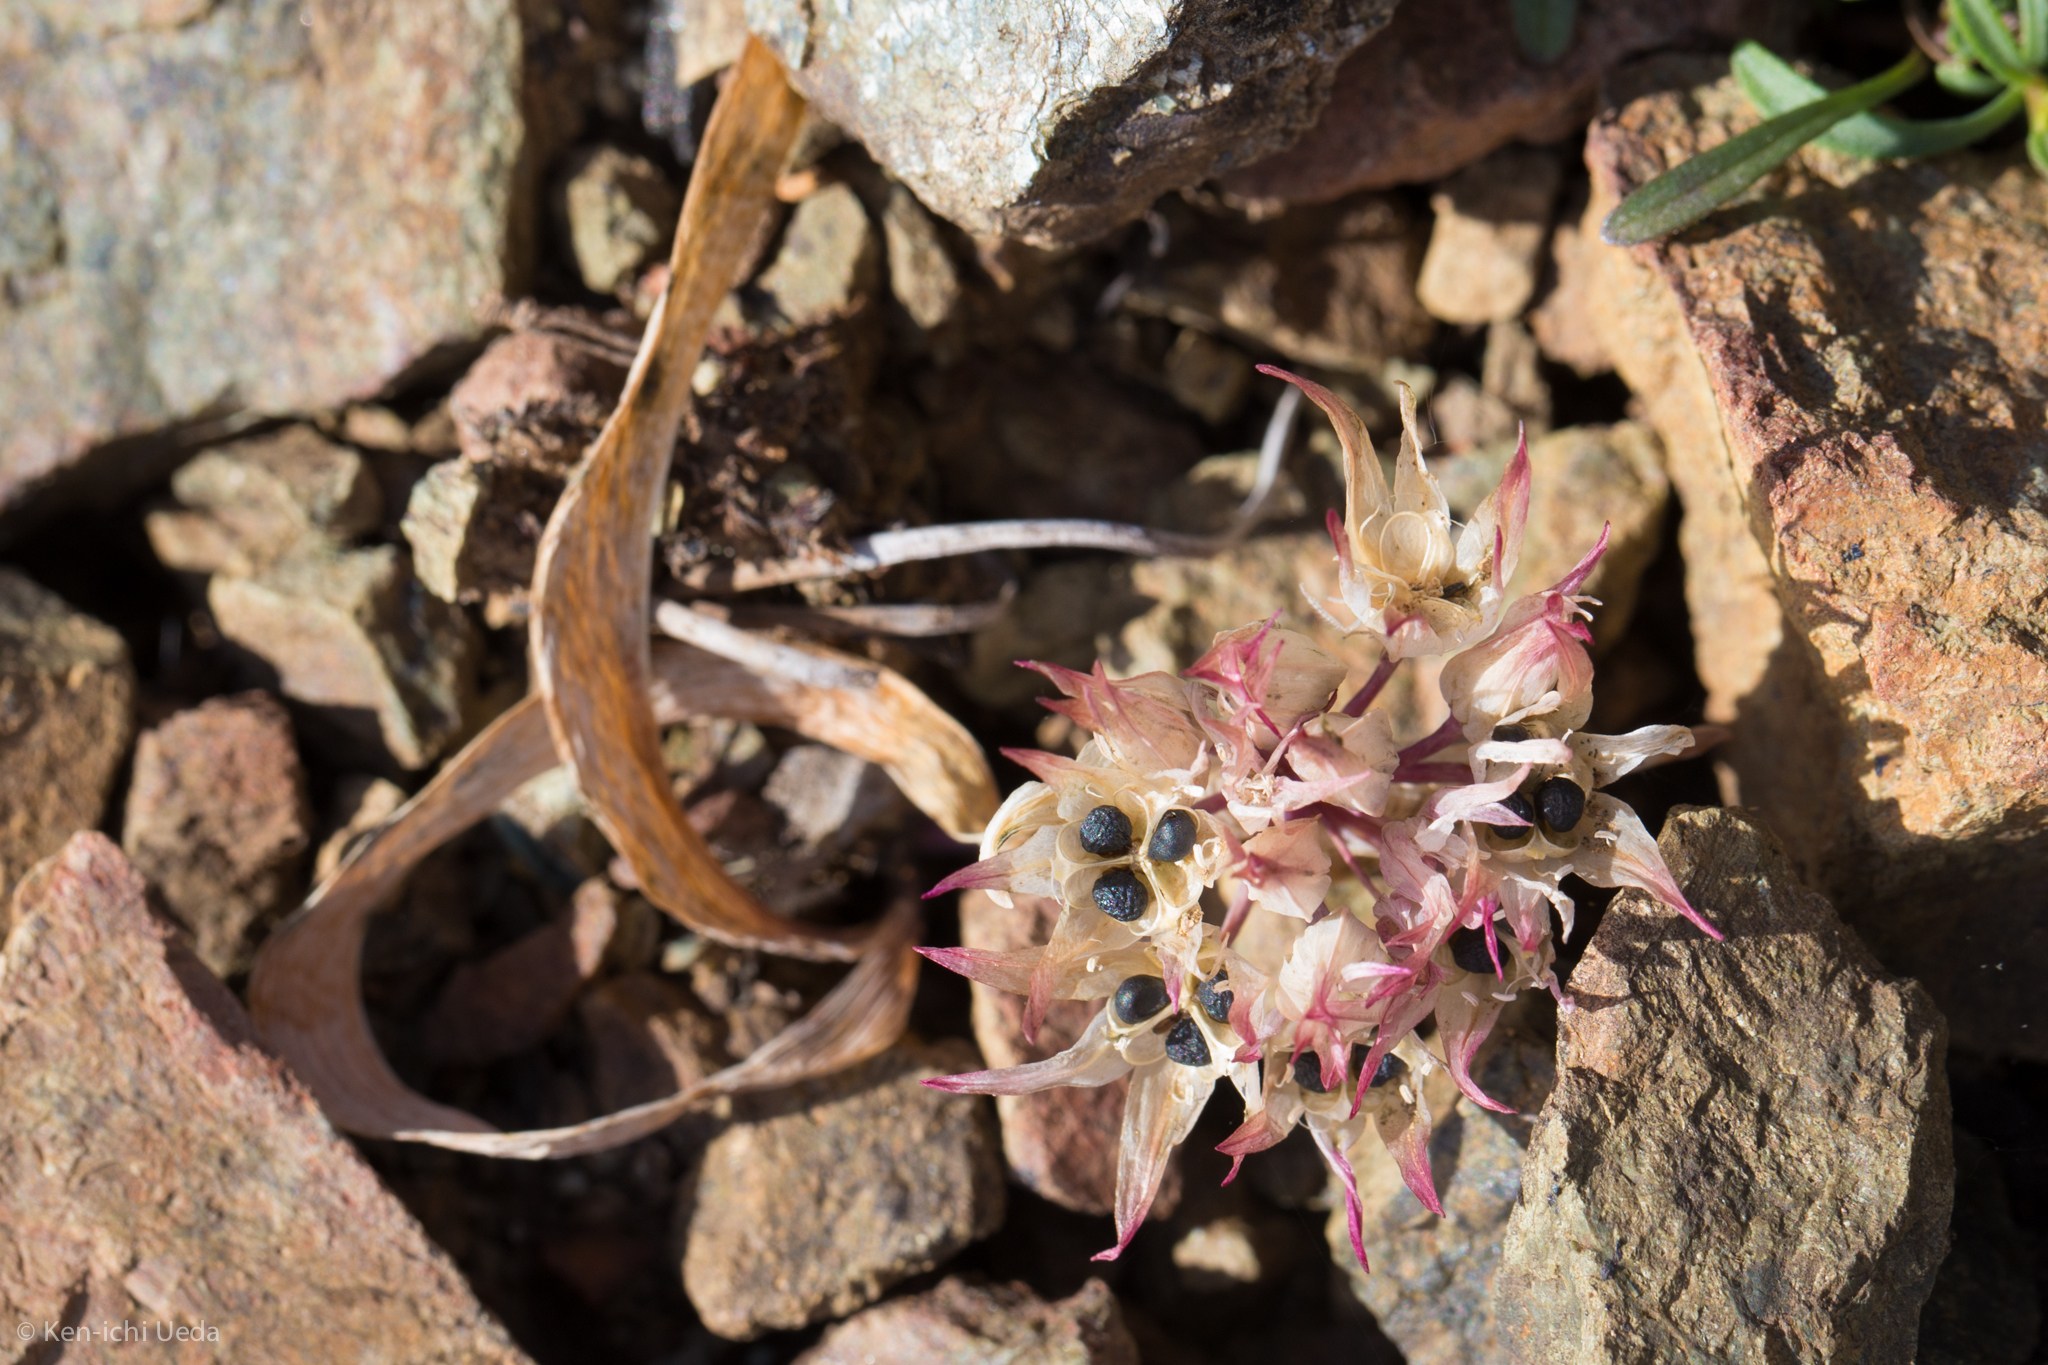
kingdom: Plantae
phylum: Tracheophyta
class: Liliopsida
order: Asparagales
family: Amaryllidaceae
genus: Allium
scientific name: Allium falcifolium
